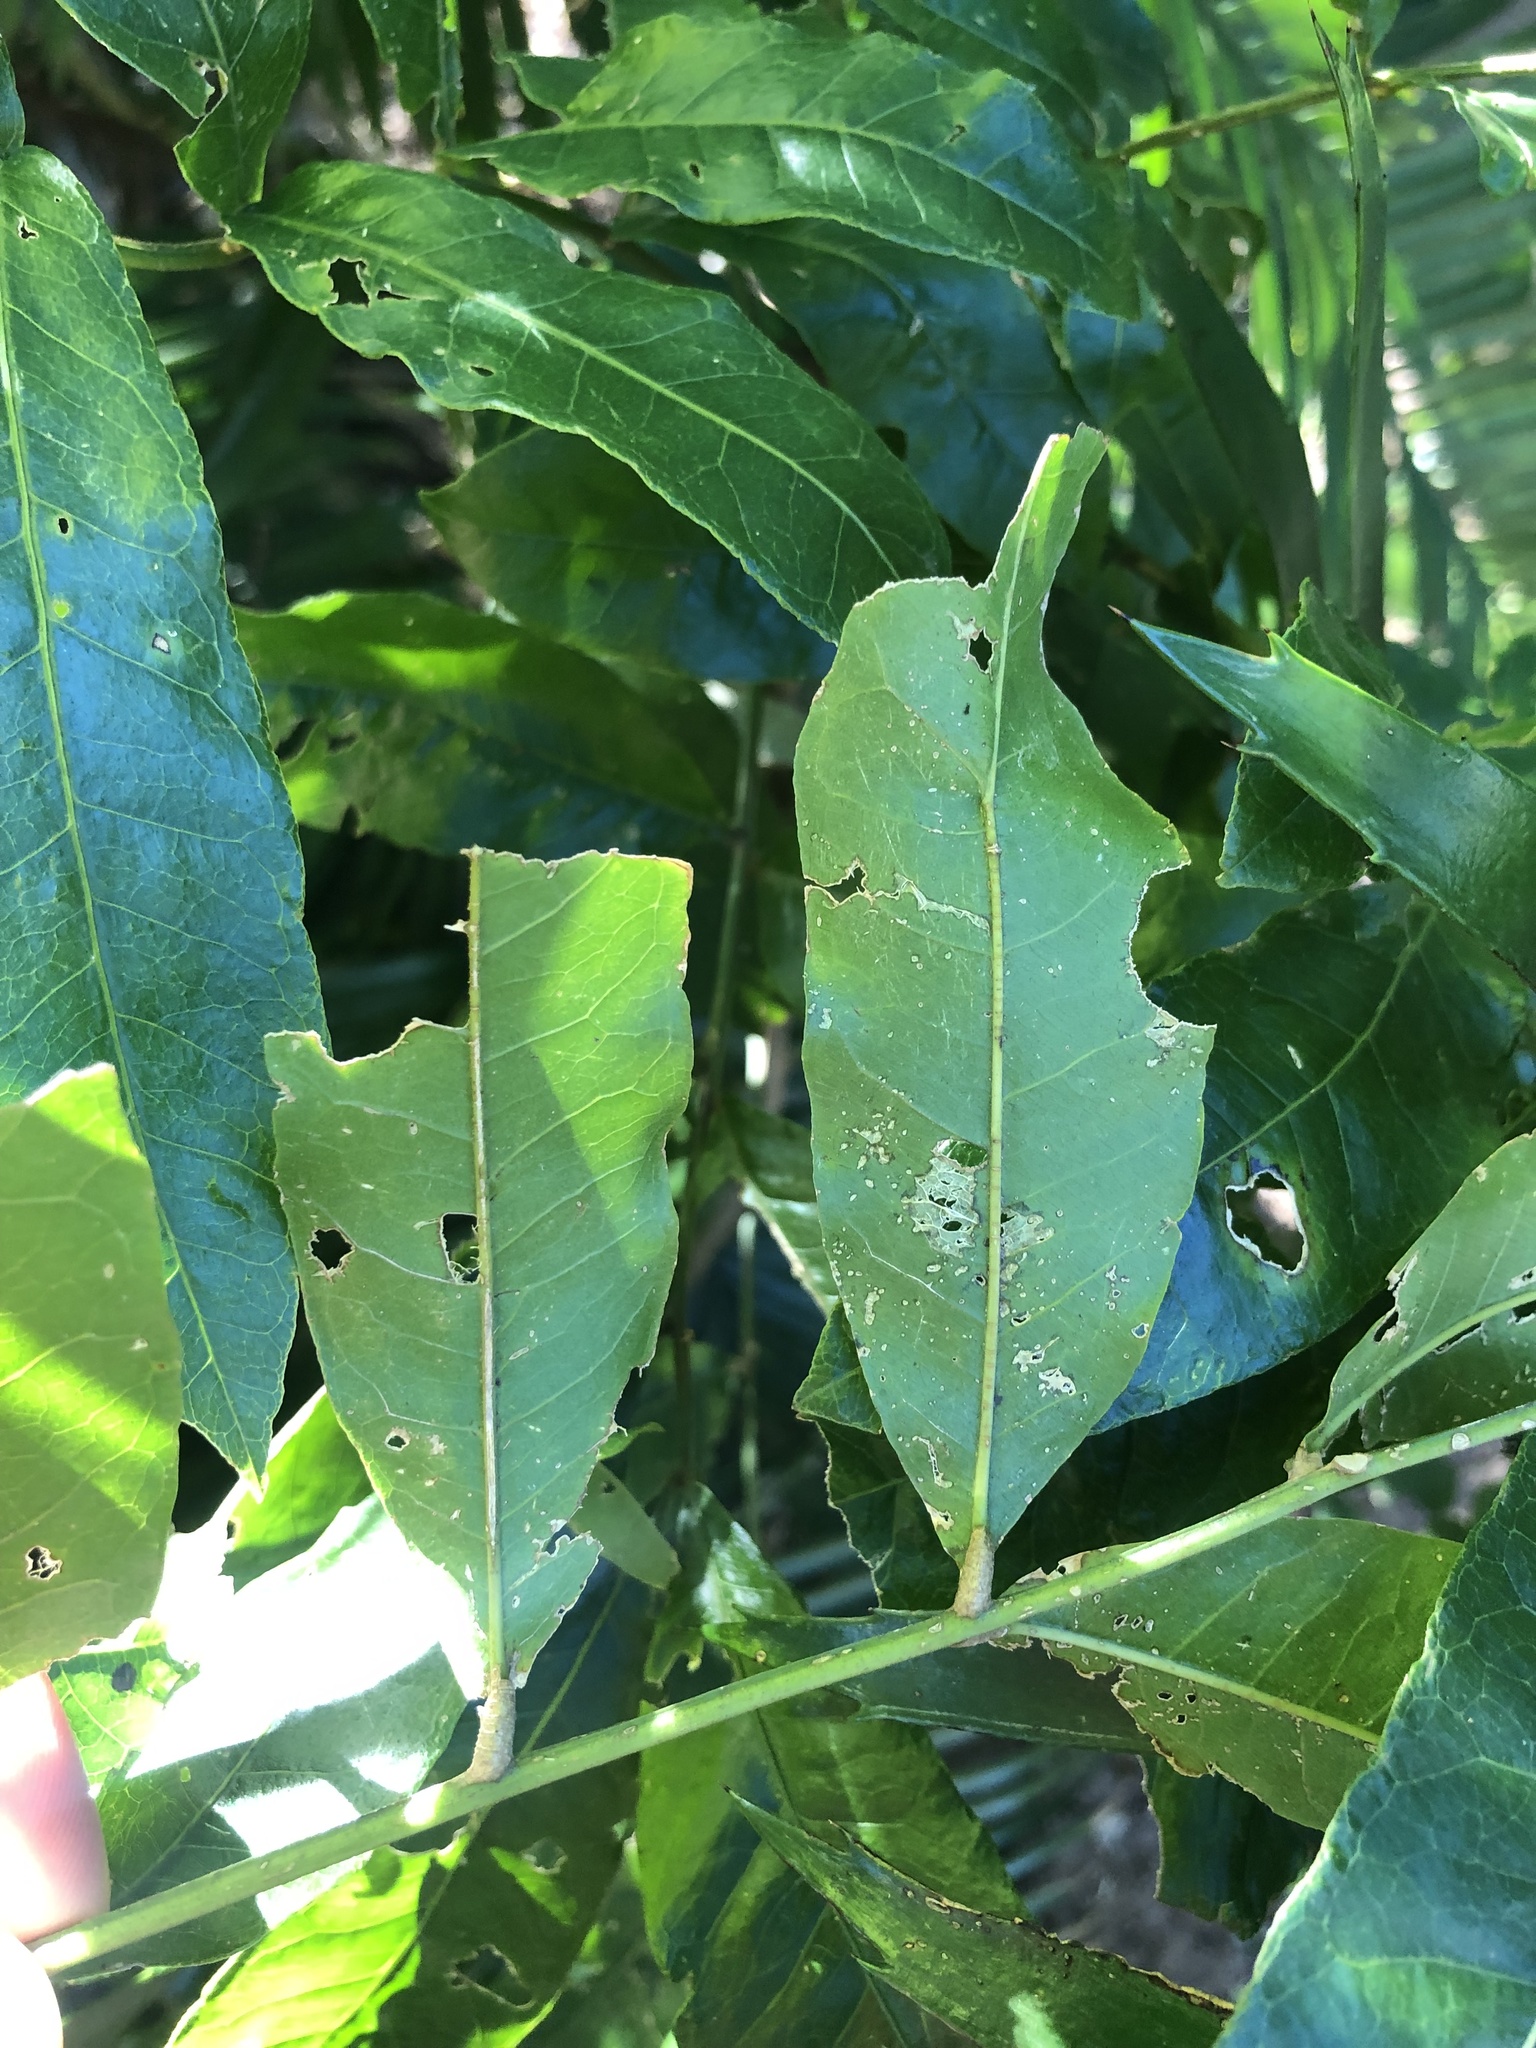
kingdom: Plantae
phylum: Tracheophyta
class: Magnoliopsida
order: Sapindales
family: Sapindaceae
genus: Deinbollia
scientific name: Deinbollia oblongifolia
